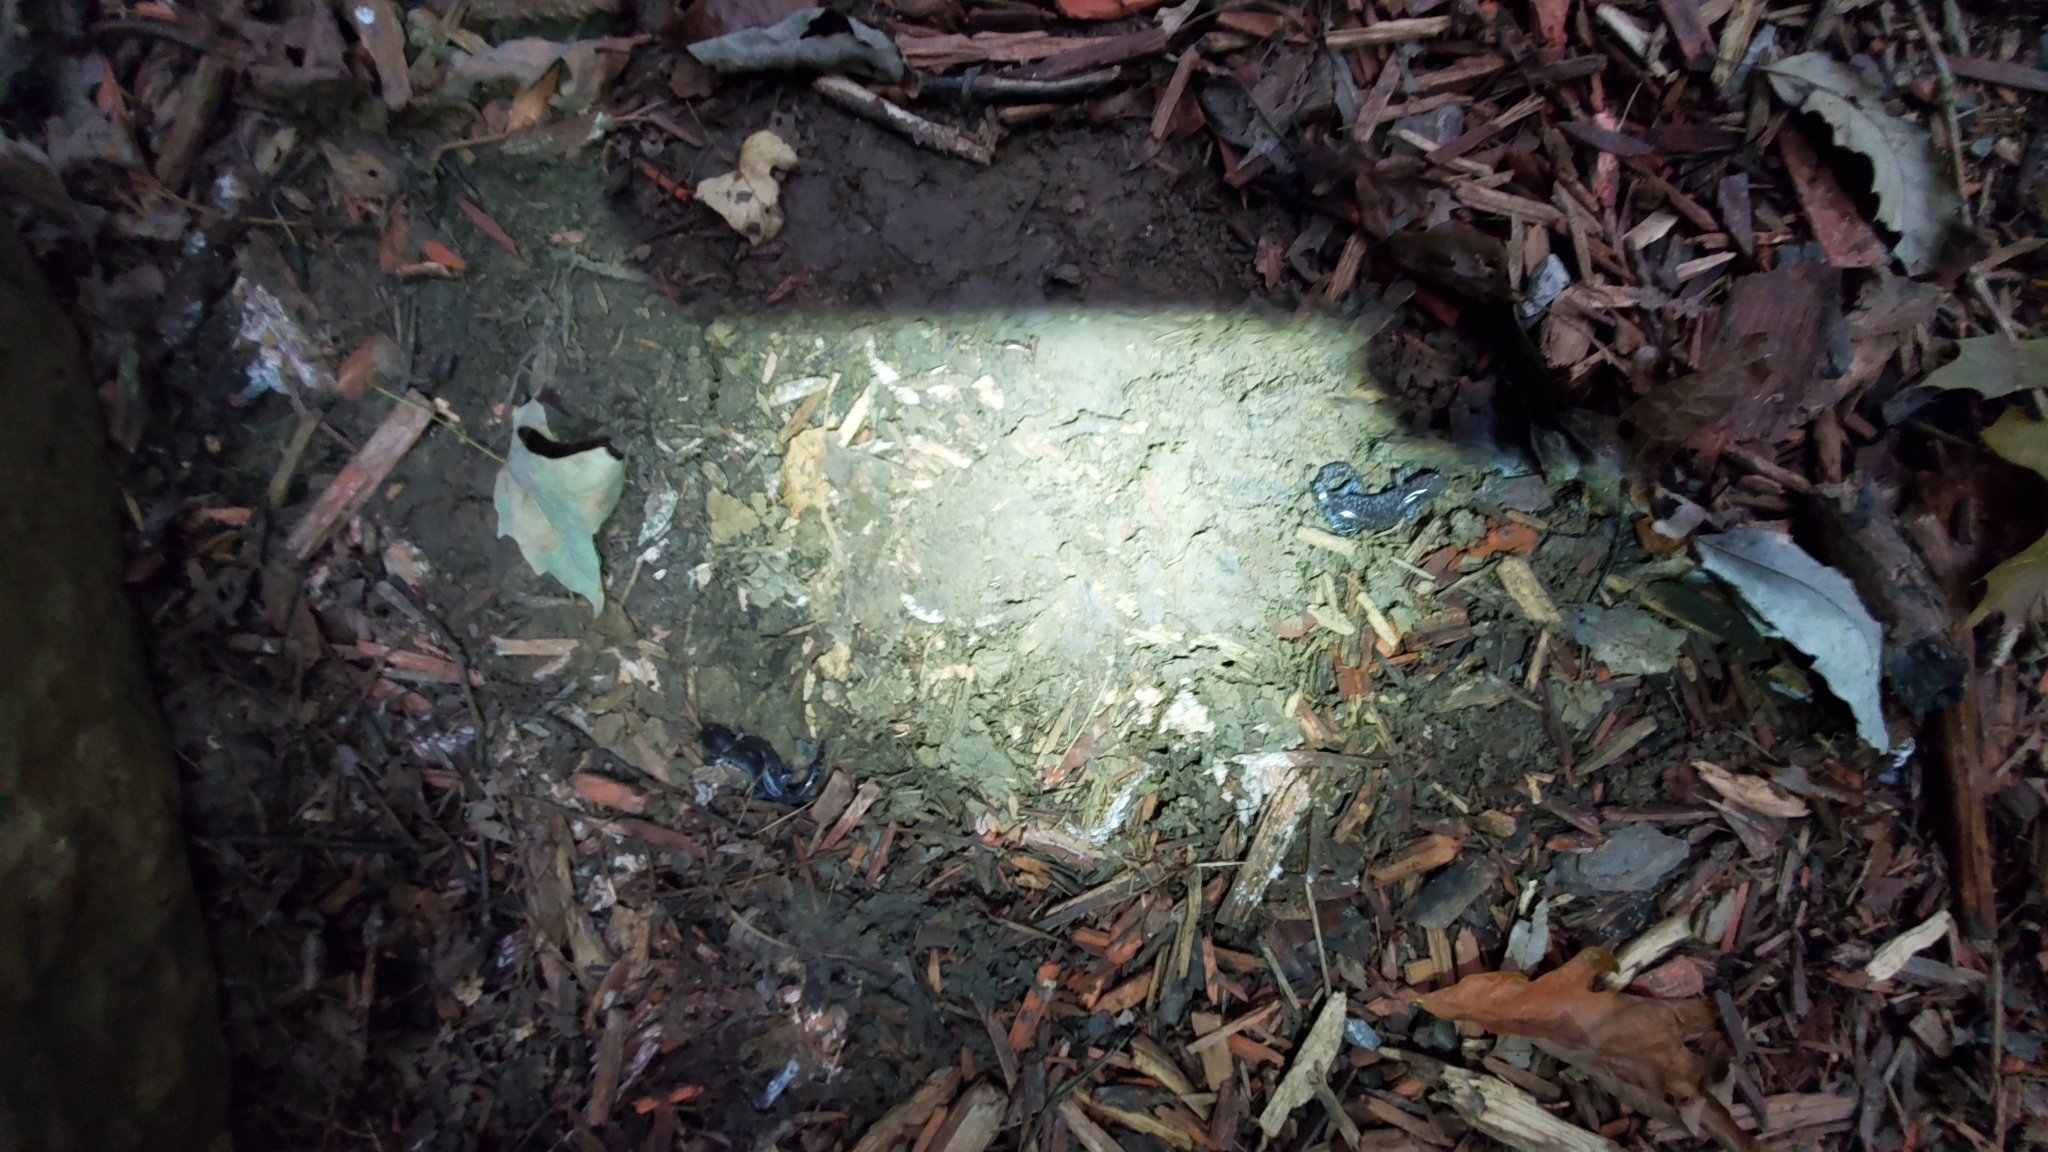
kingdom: Animalia
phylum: Chordata
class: Amphibia
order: Caudata
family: Ambystomatidae
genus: Ambystoma
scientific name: Ambystoma barbouri
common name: Streamside salamander
